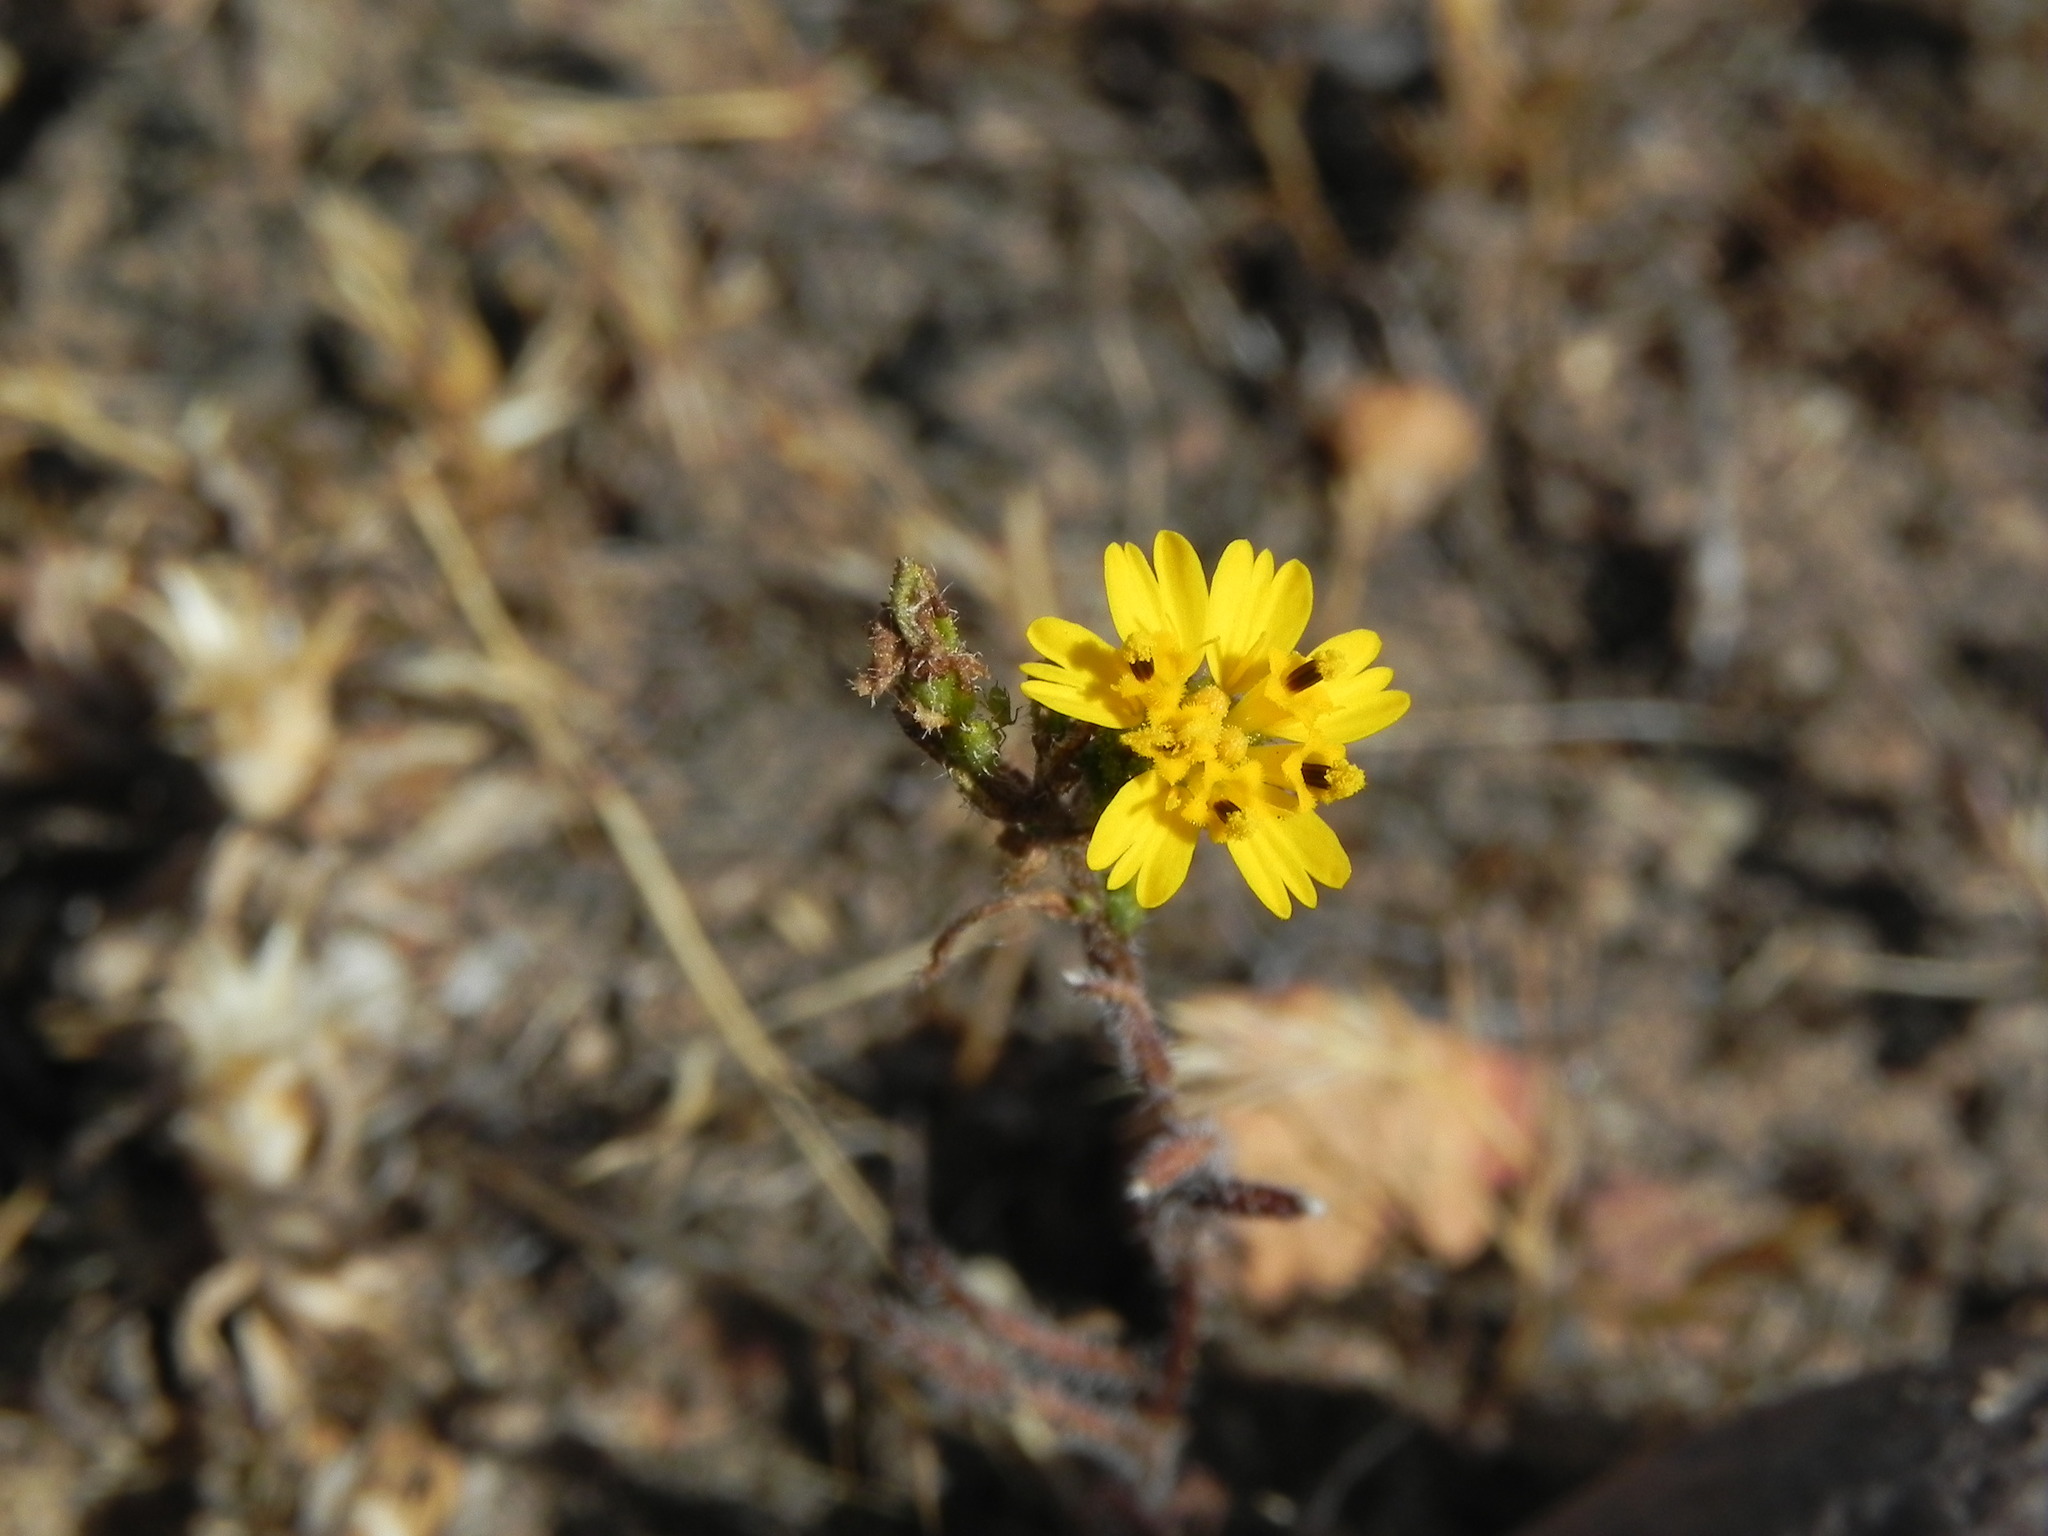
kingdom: Plantae
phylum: Tracheophyta
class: Magnoliopsida
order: Asterales
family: Asteraceae
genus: Deinandra
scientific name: Deinandra conjugens
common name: Otay tarplant
